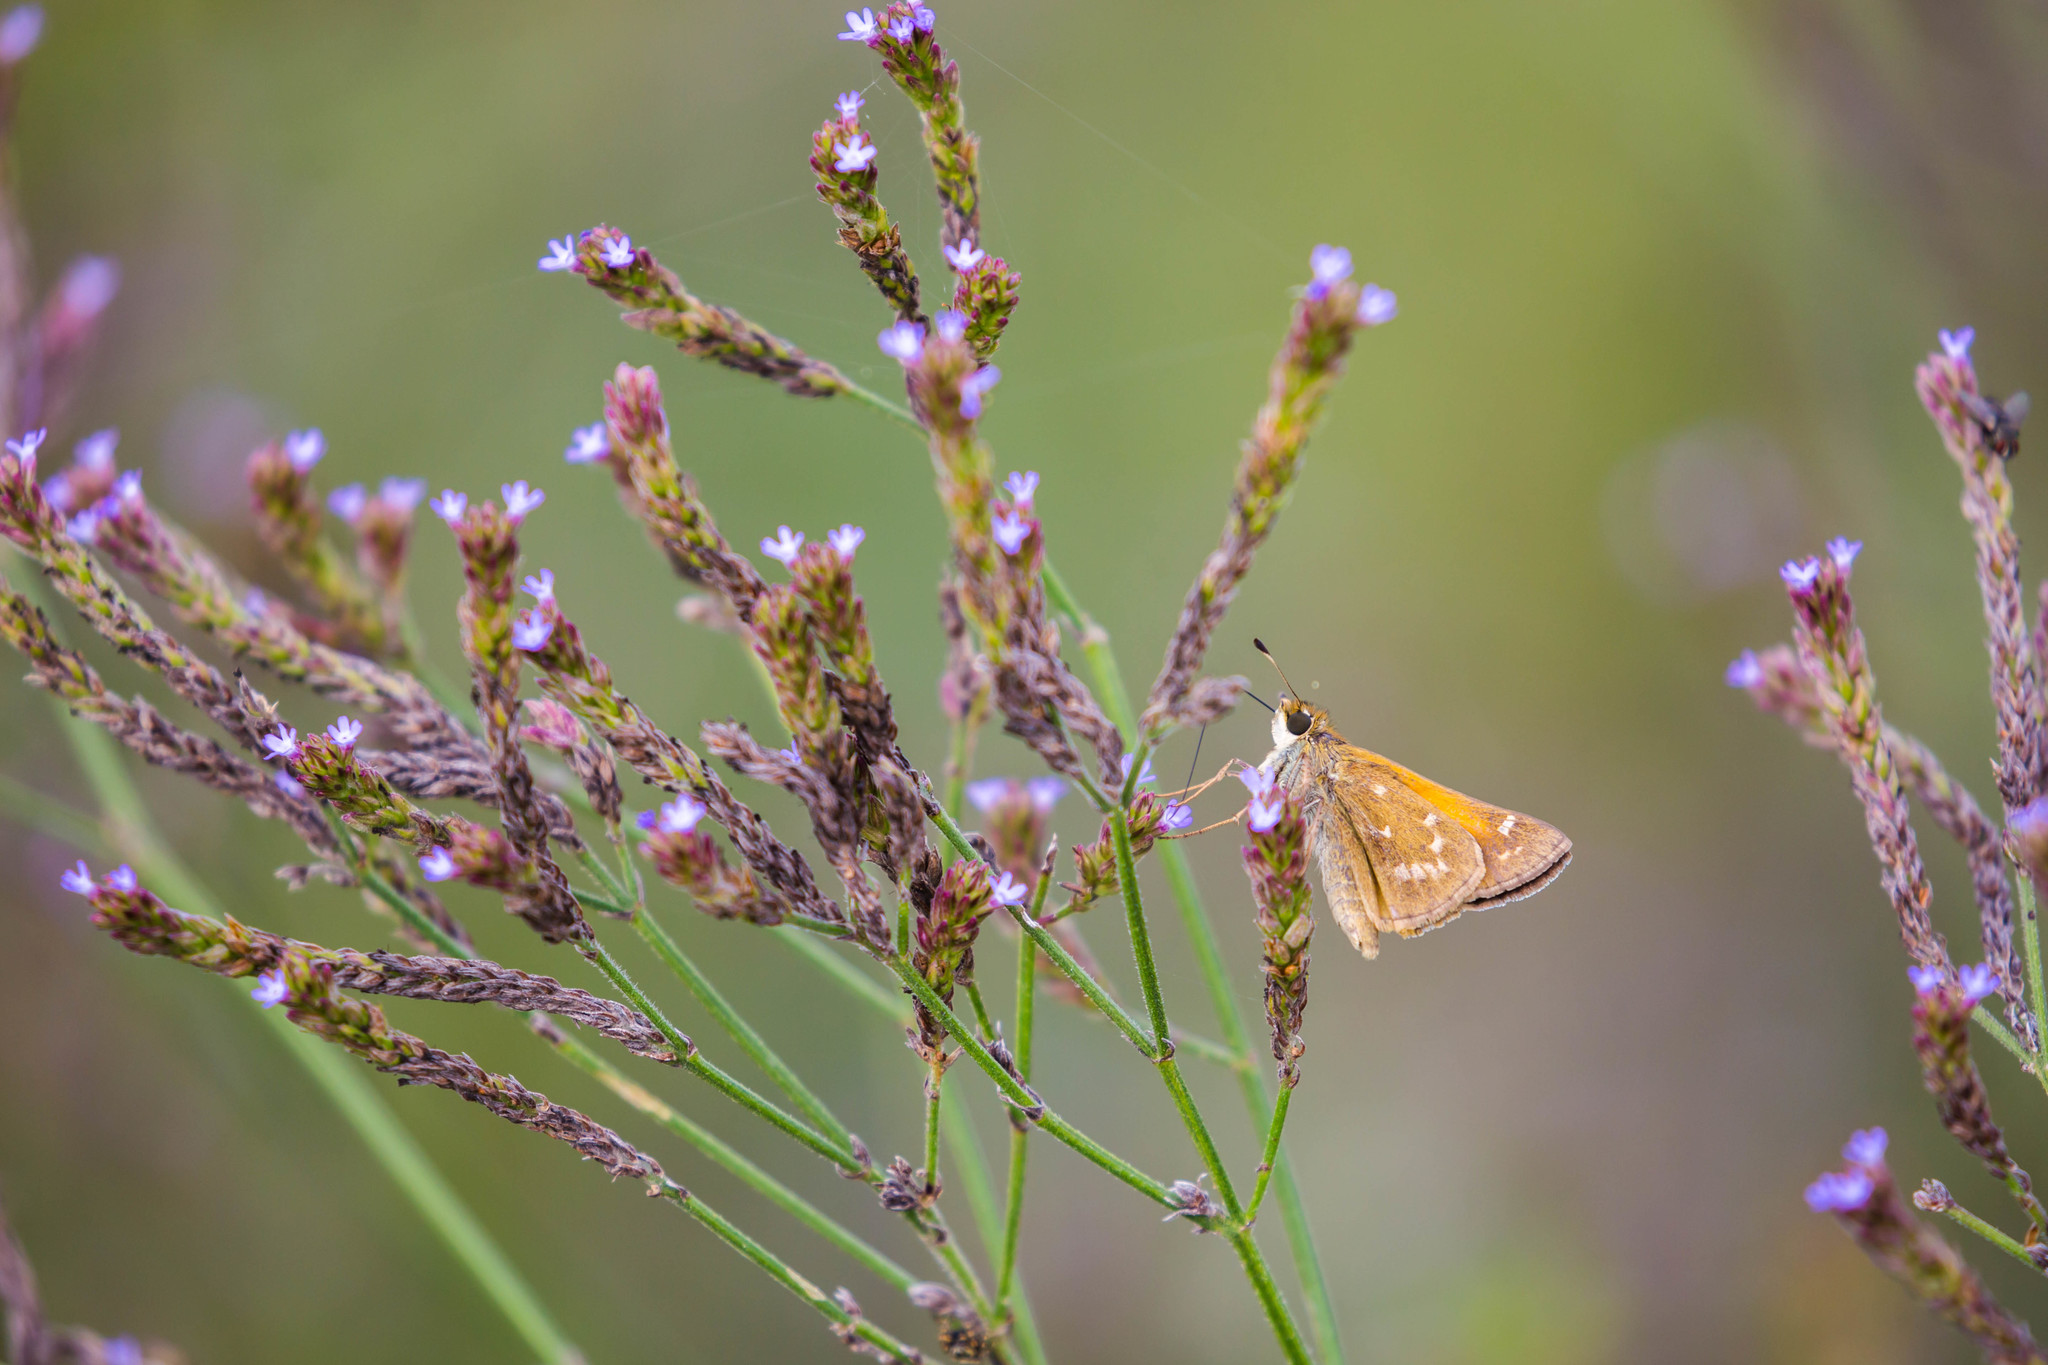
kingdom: Animalia
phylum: Arthropoda
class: Insecta
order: Lepidoptera
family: Hesperiidae
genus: Atalopedes
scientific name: Atalopedes
